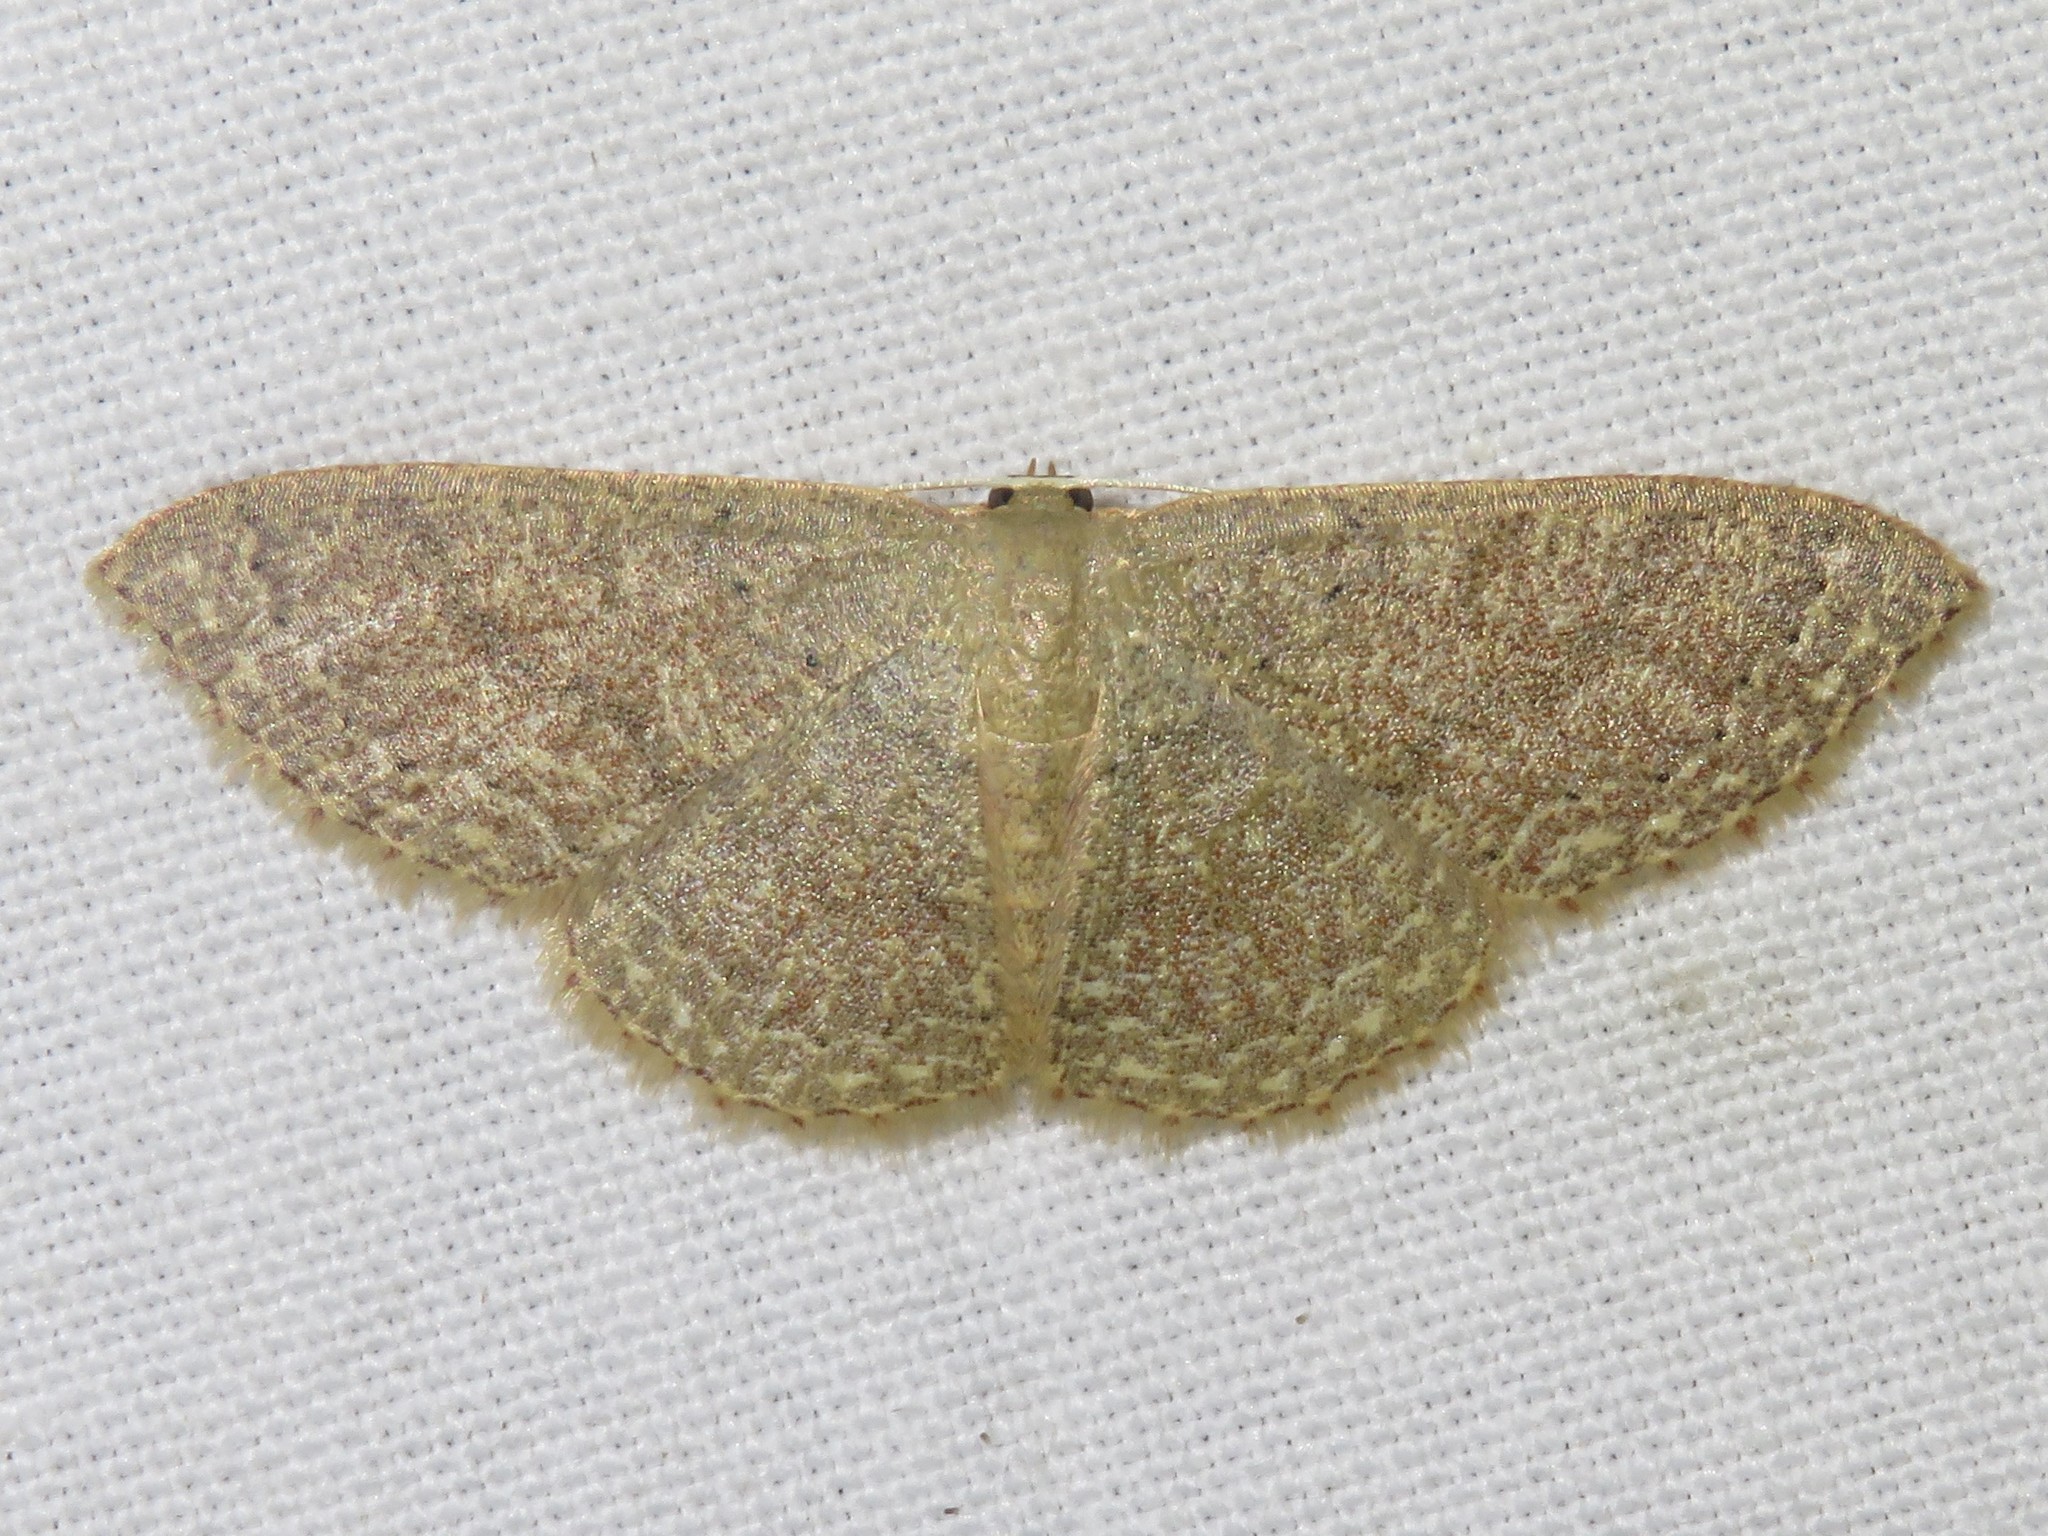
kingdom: Animalia
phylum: Arthropoda
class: Insecta
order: Lepidoptera
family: Geometridae
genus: Pleuroprucha
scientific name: Pleuroprucha insulsaria
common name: Common tan wave
